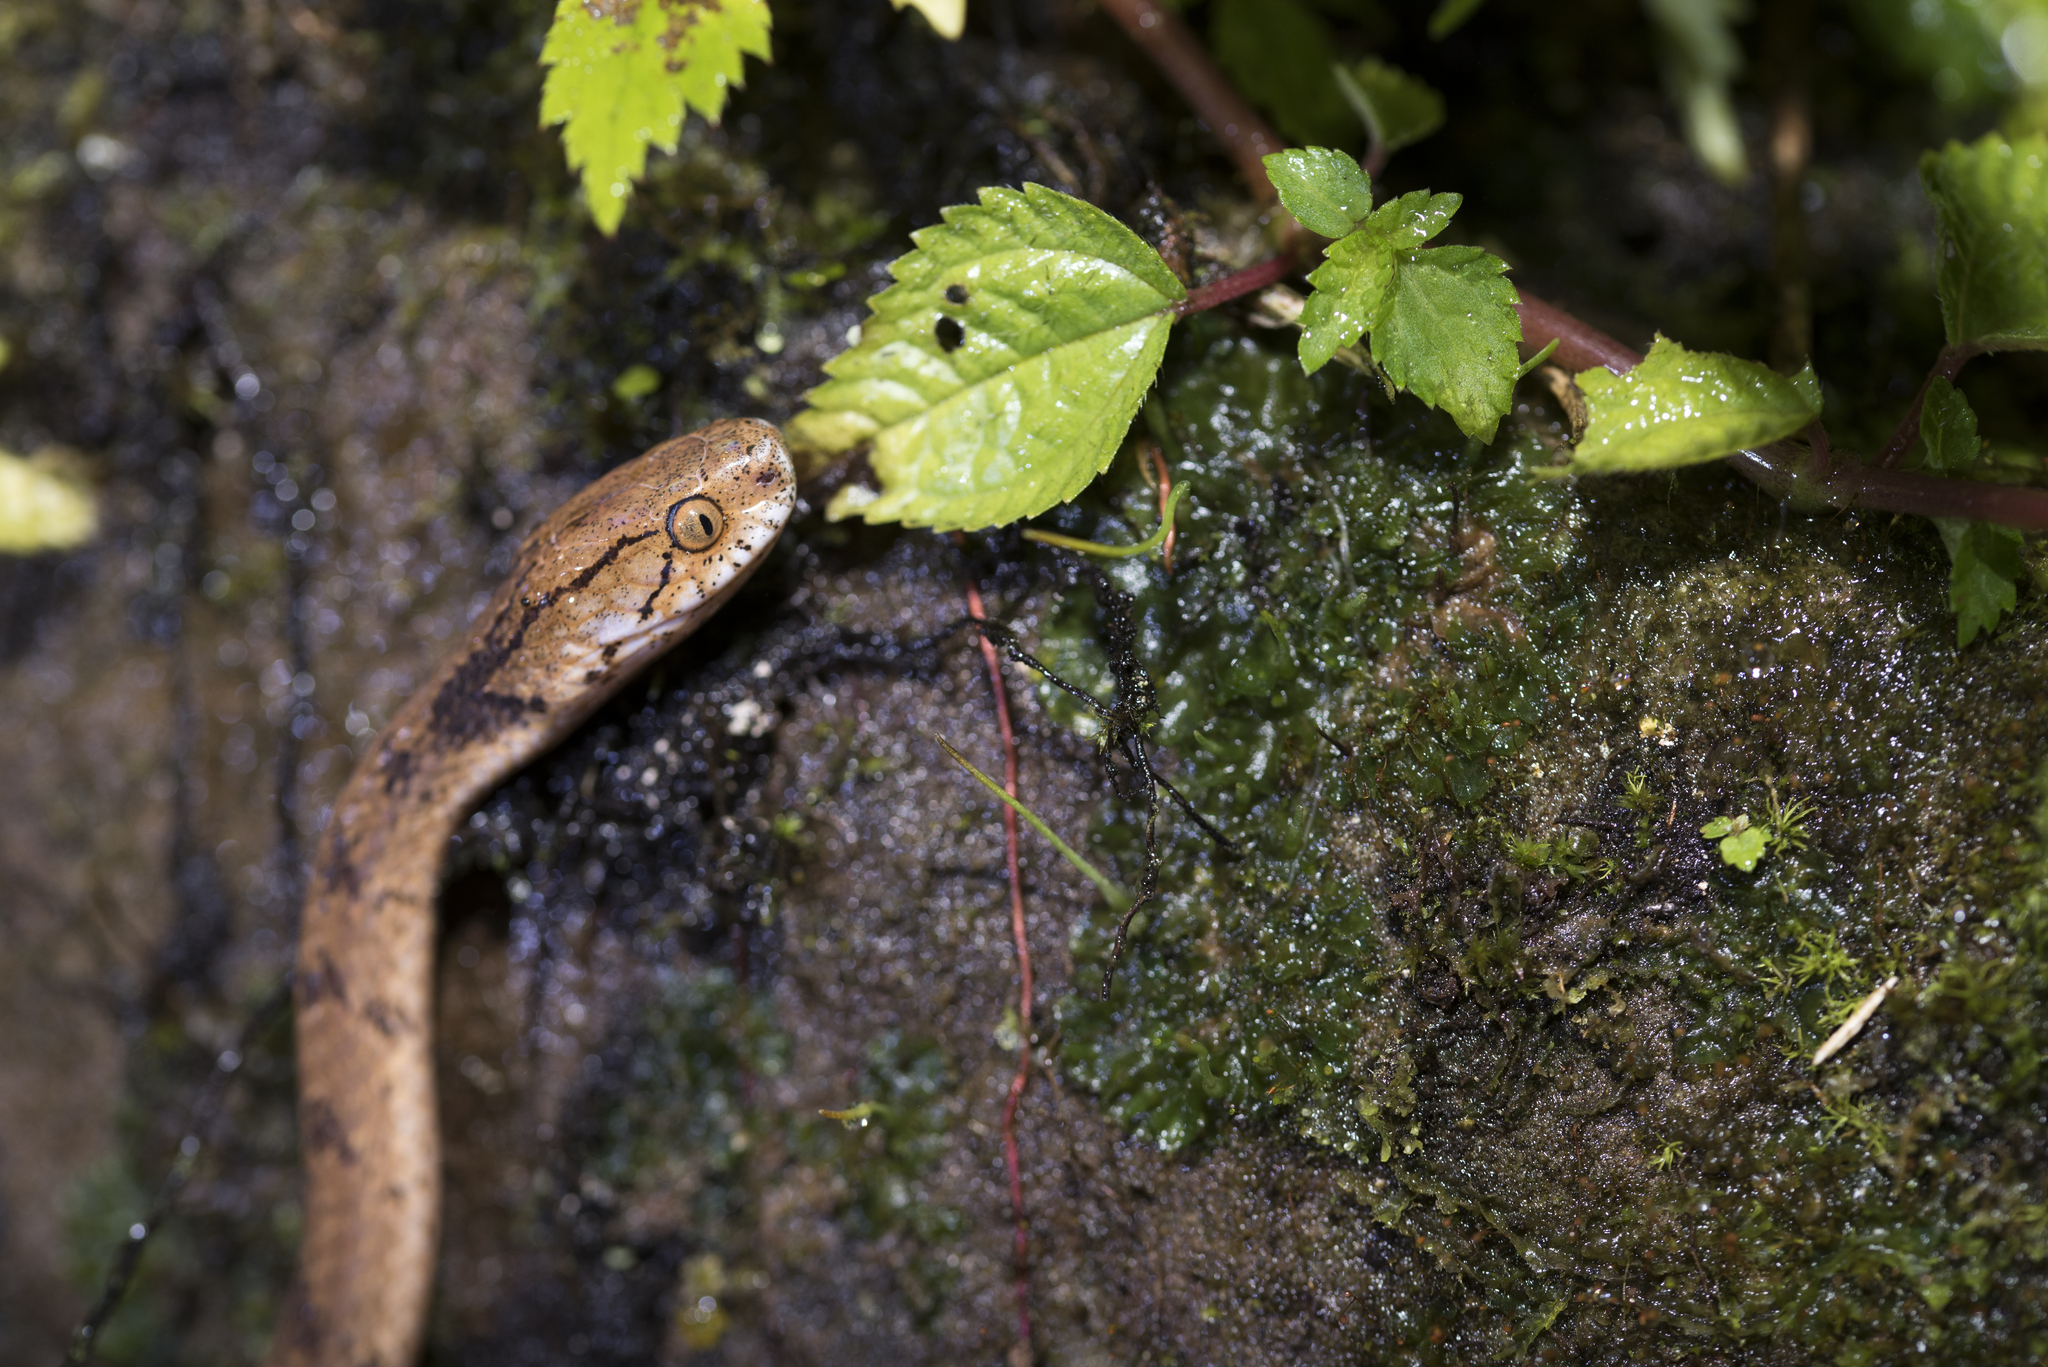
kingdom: Animalia
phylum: Chordata
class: Squamata
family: Pareidae
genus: Pareas
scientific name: Pareas komaii
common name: Formosa slug snake
